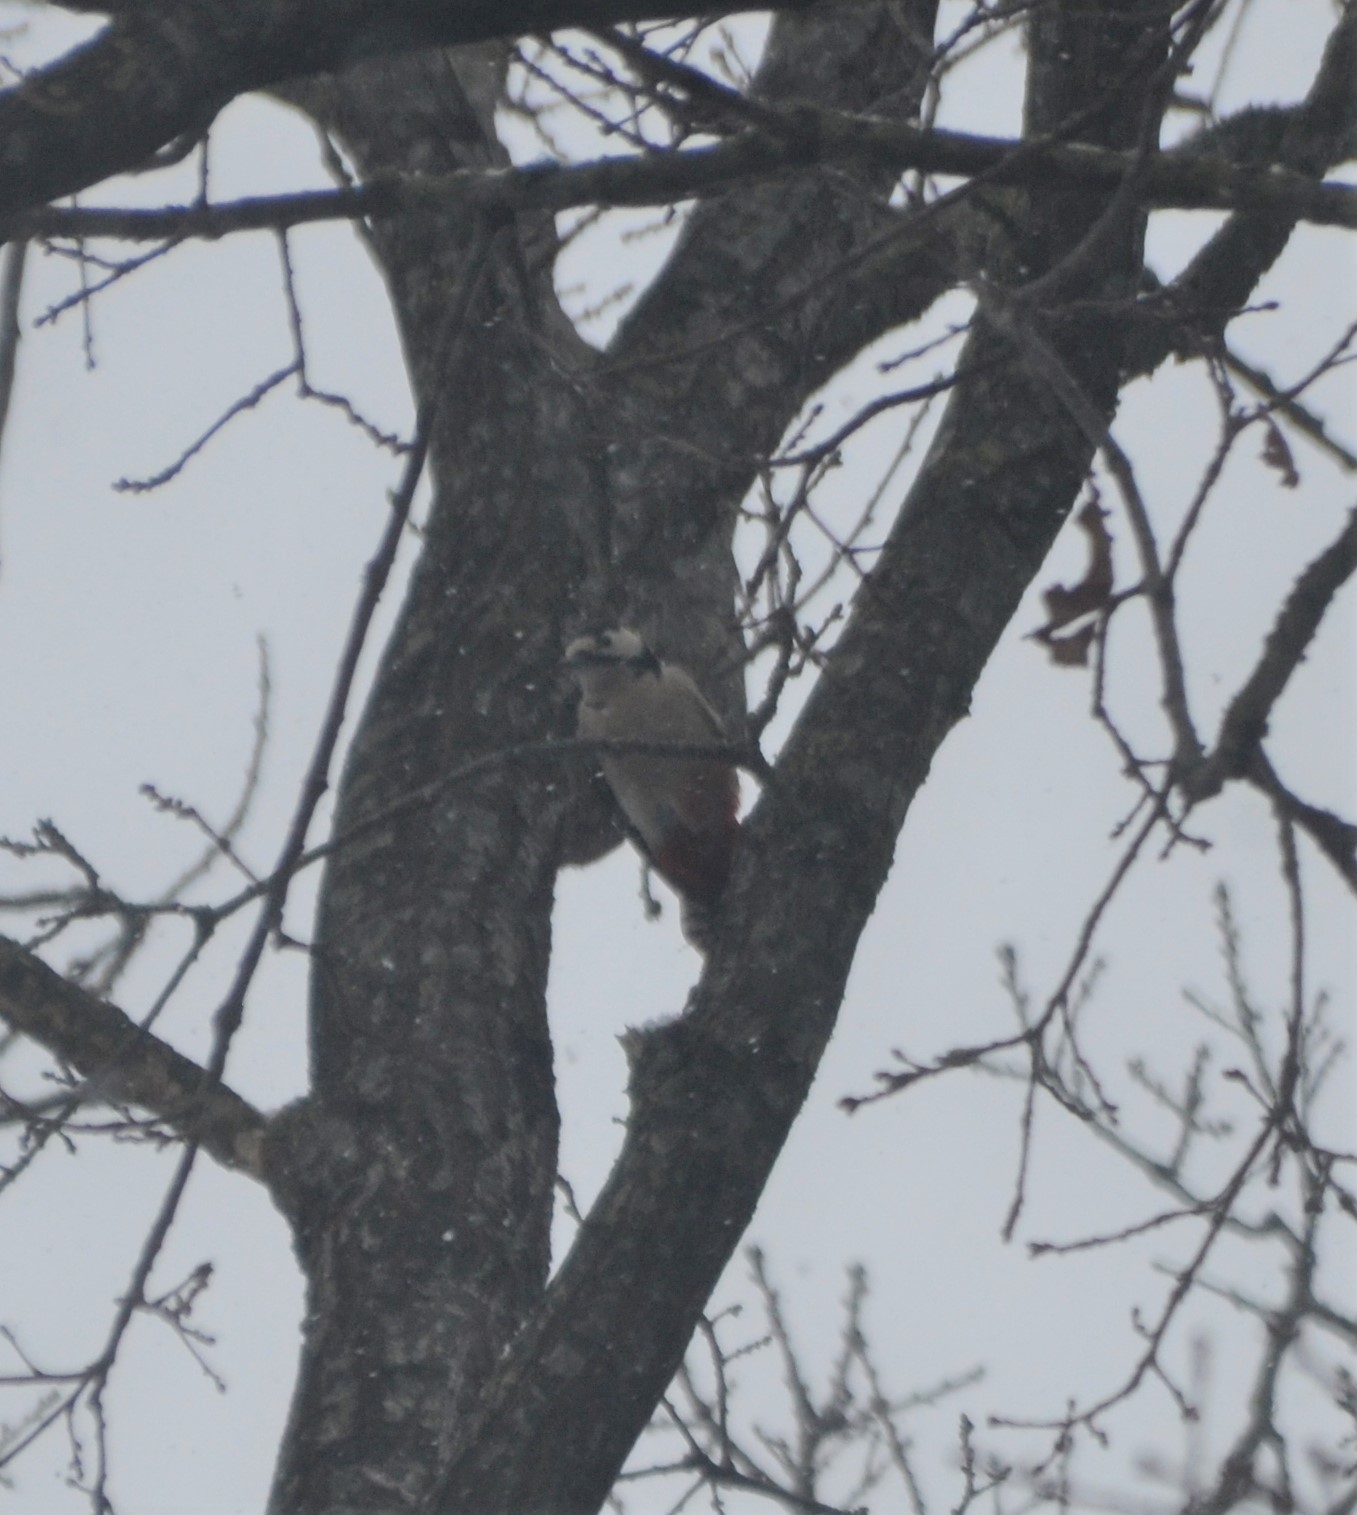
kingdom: Animalia
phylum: Chordata
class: Aves
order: Piciformes
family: Picidae
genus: Dendrocopos
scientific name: Dendrocopos major
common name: Great spotted woodpecker
